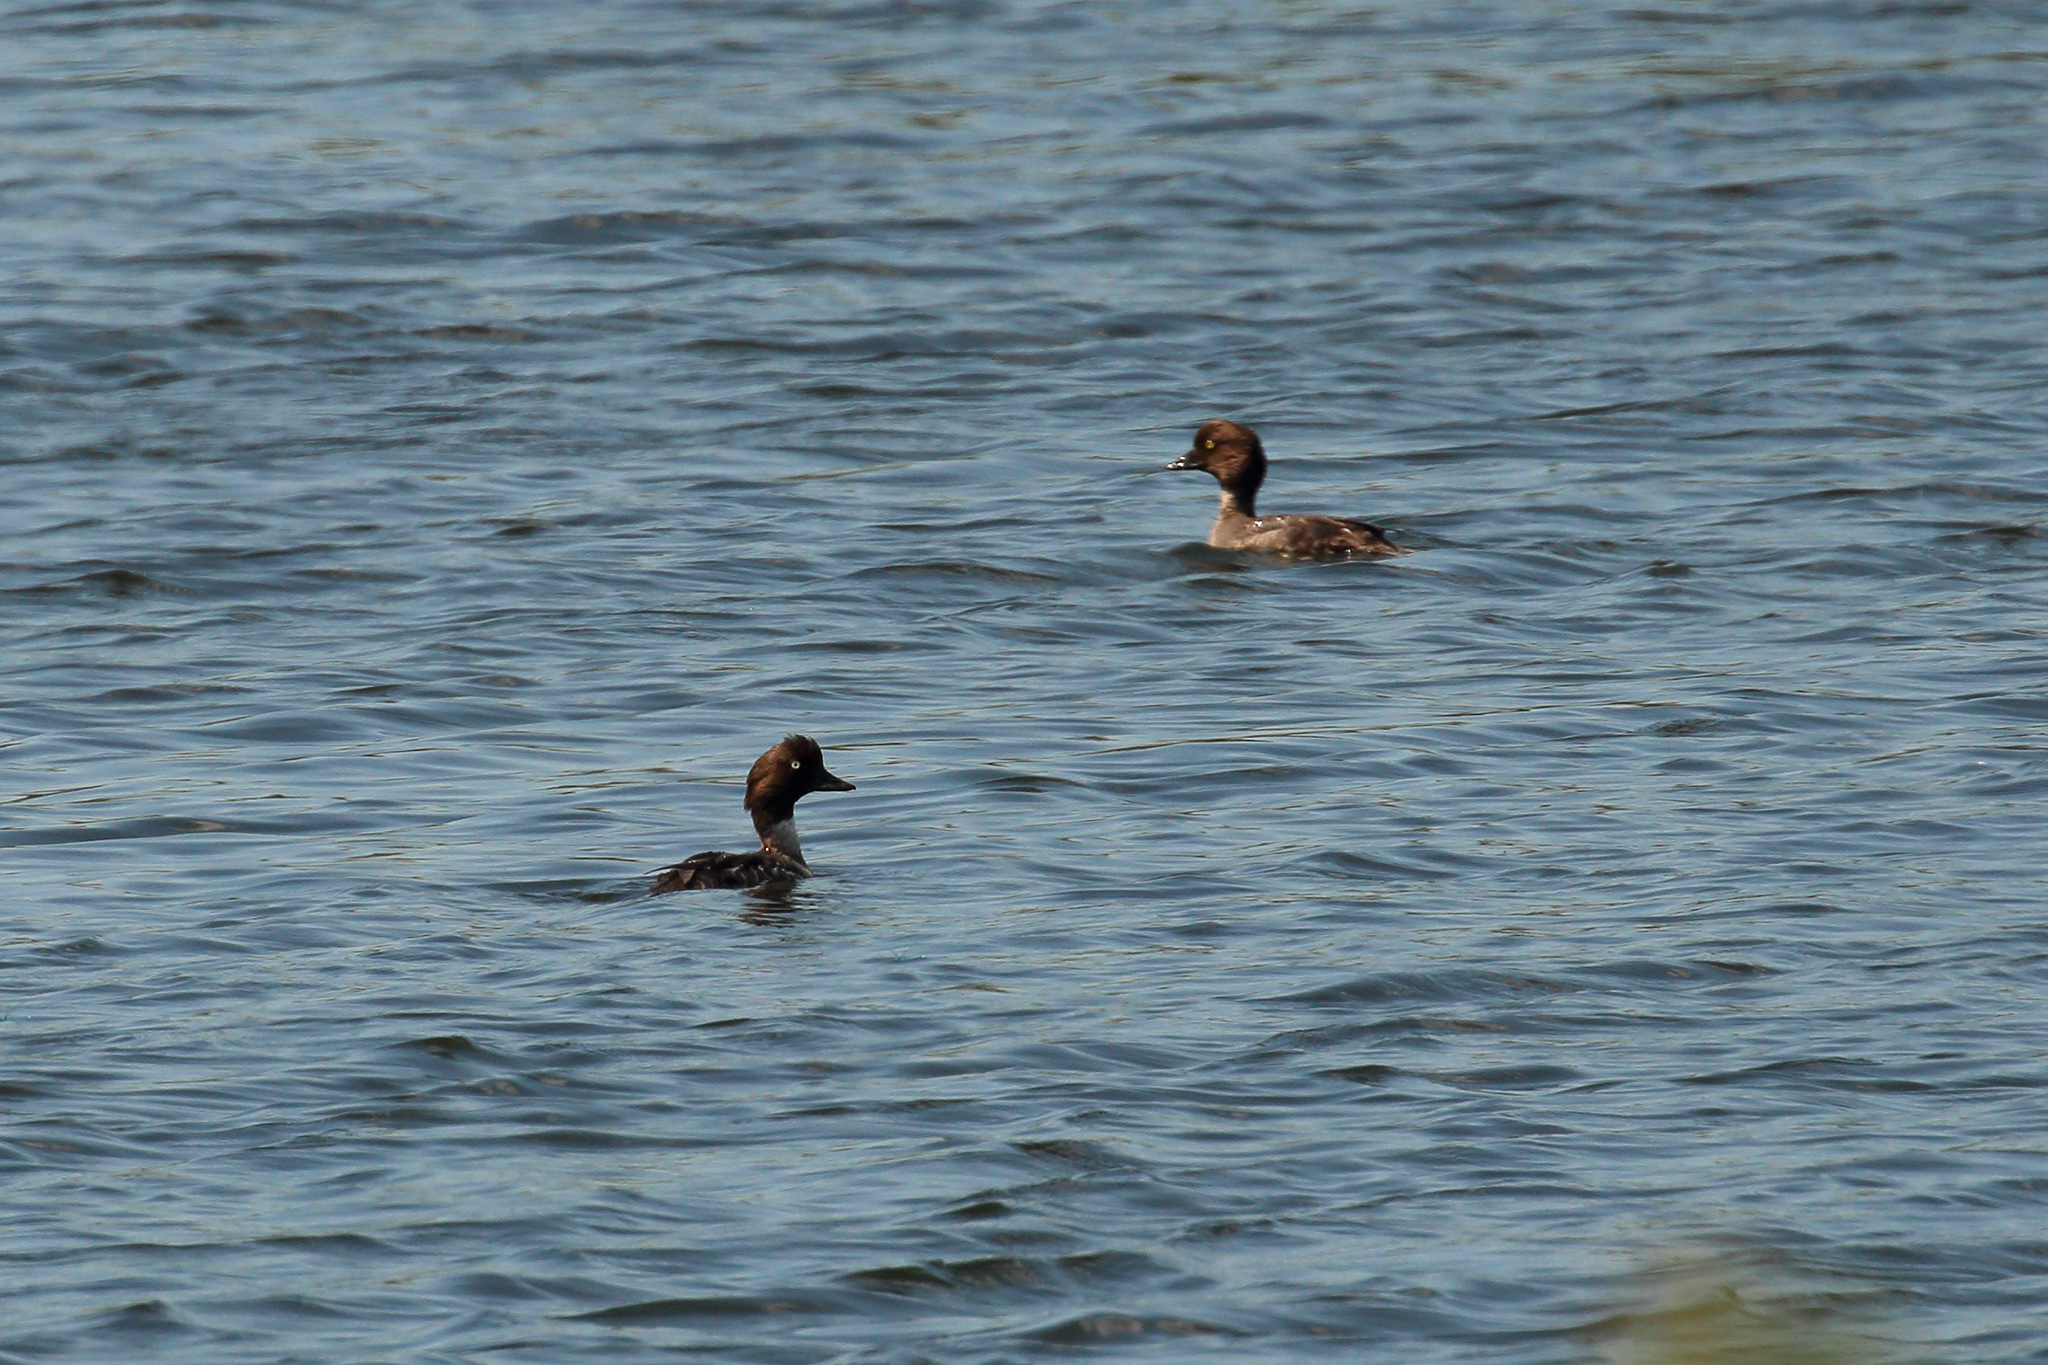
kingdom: Animalia
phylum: Chordata
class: Aves
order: Anseriformes
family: Anatidae
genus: Bucephala
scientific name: Bucephala clangula
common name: Common goldeneye
